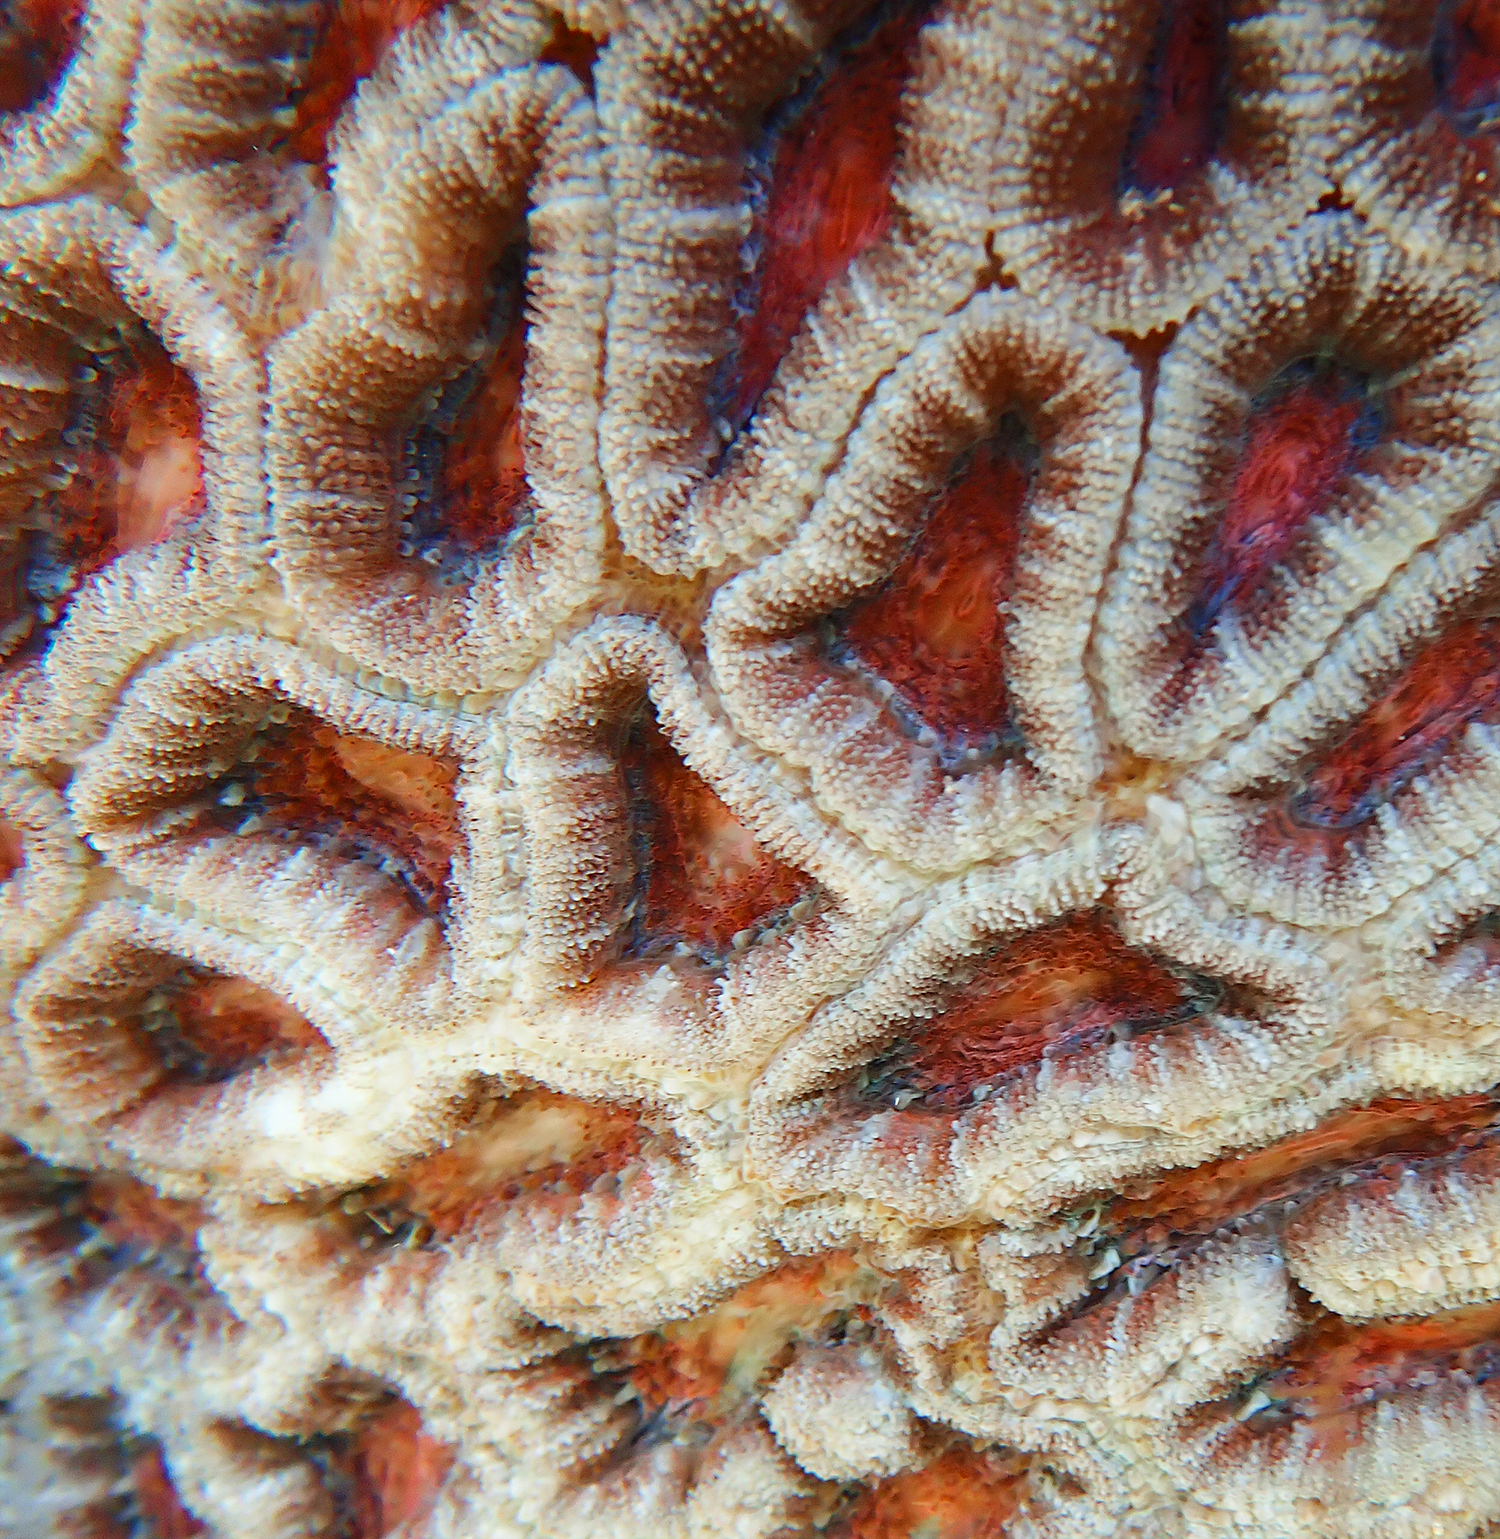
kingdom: Animalia
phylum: Cnidaria
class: Anthozoa
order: Scleractinia
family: Lobophylliidae
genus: Micromussa
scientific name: Micromussa lordhowensis
